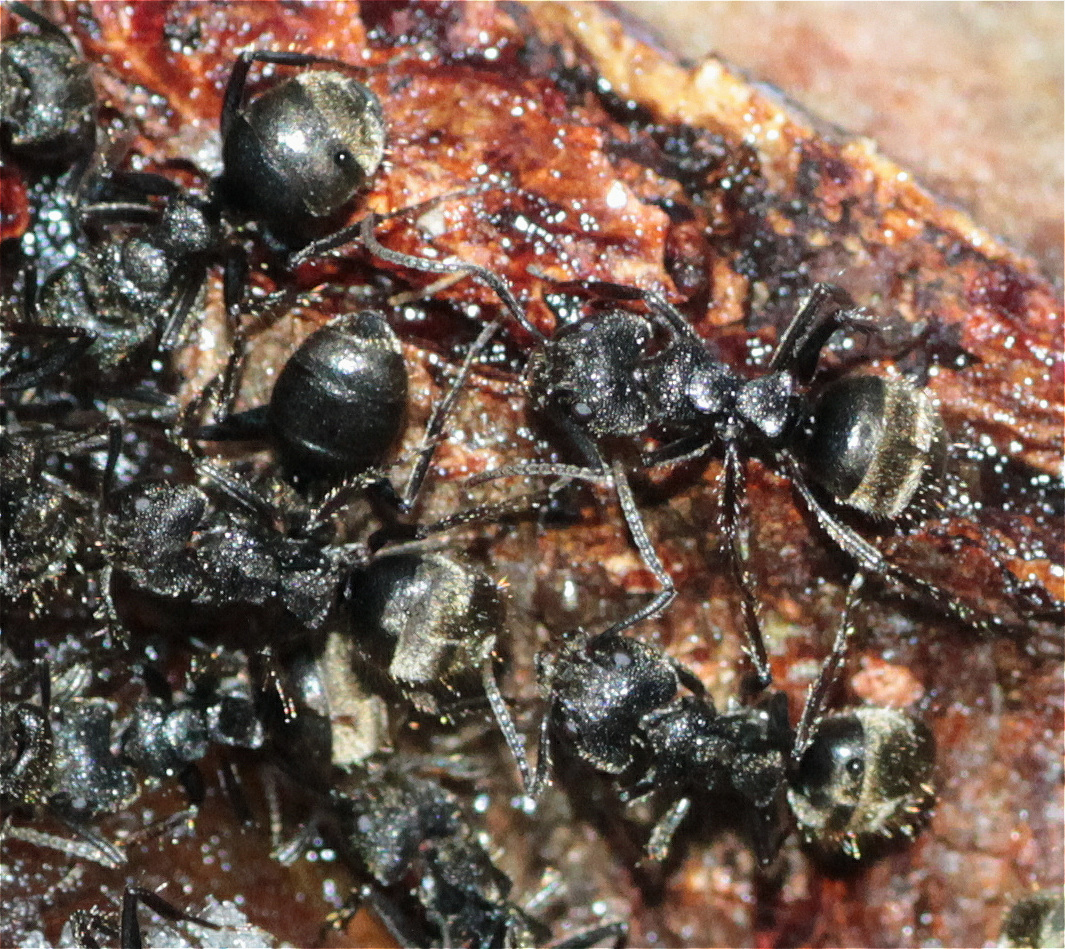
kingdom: Animalia
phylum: Arthropoda
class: Insecta
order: Hymenoptera
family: Formicidae
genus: Dolichoderus
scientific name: Dolichoderus bispinosus
